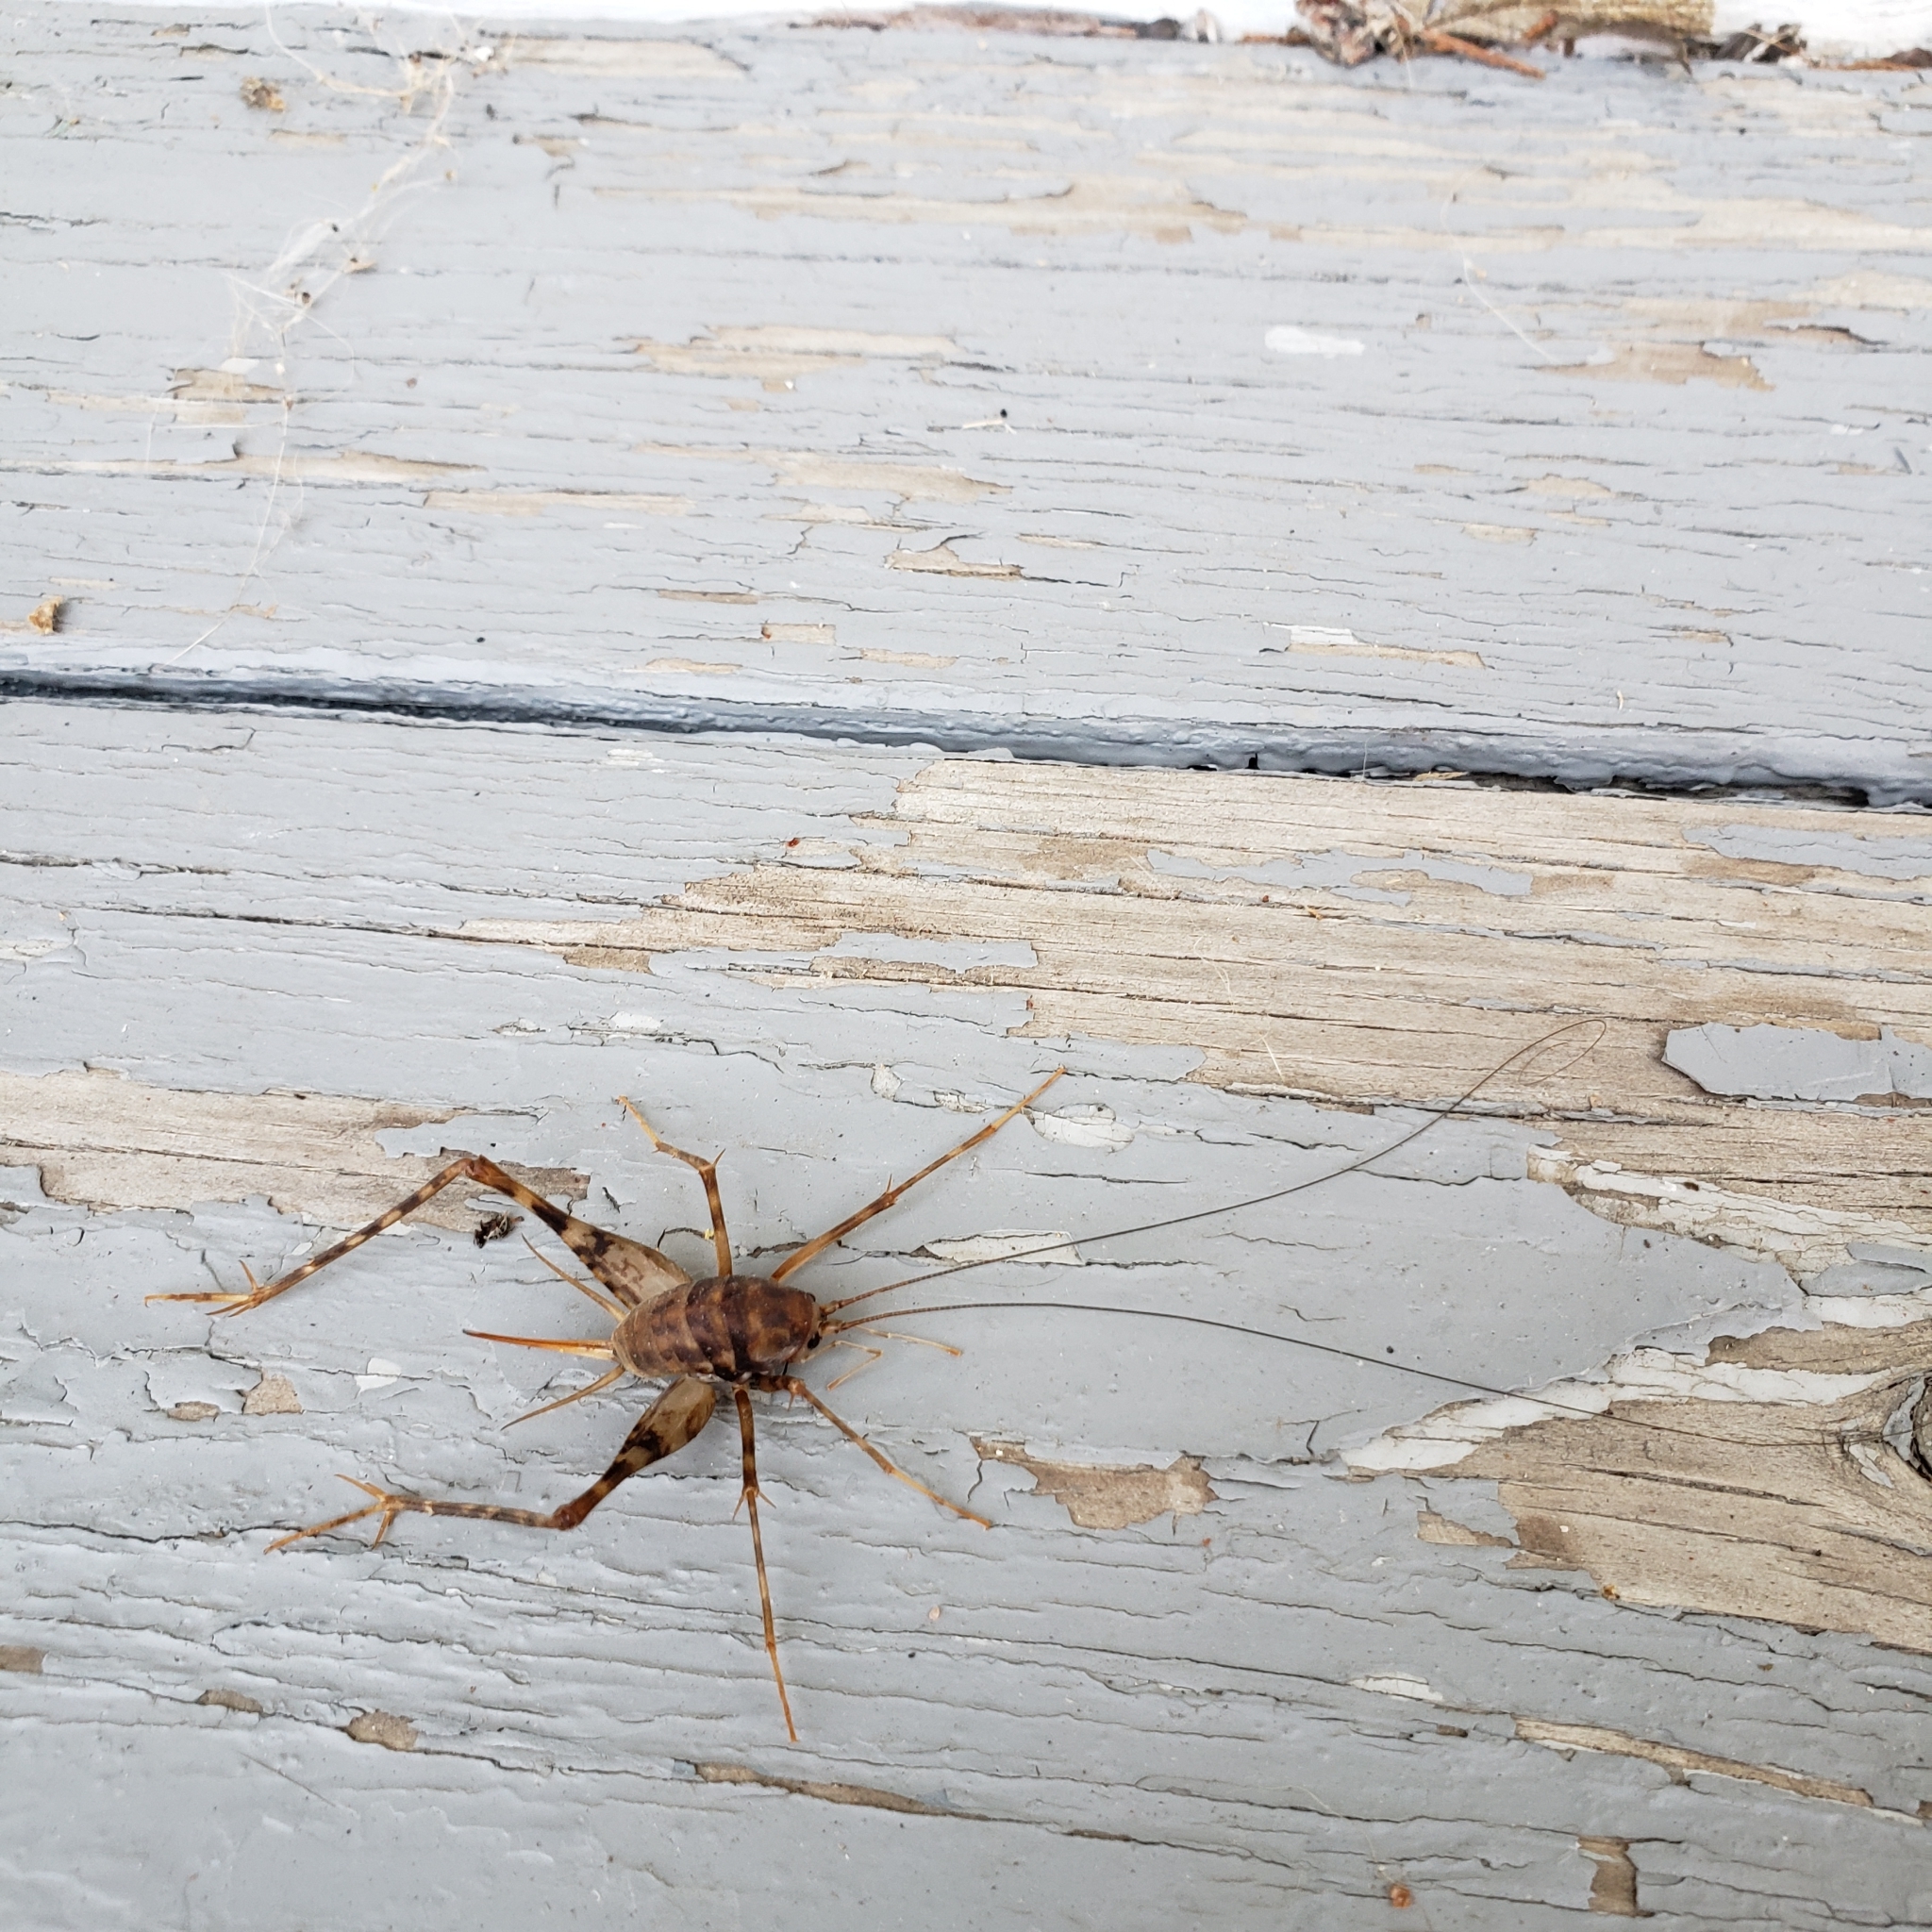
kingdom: Animalia
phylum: Arthropoda
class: Insecta
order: Orthoptera
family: Rhaphidophoridae
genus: Tachycines
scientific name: Tachycines asynamorus
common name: Greenhouse camel cricket
